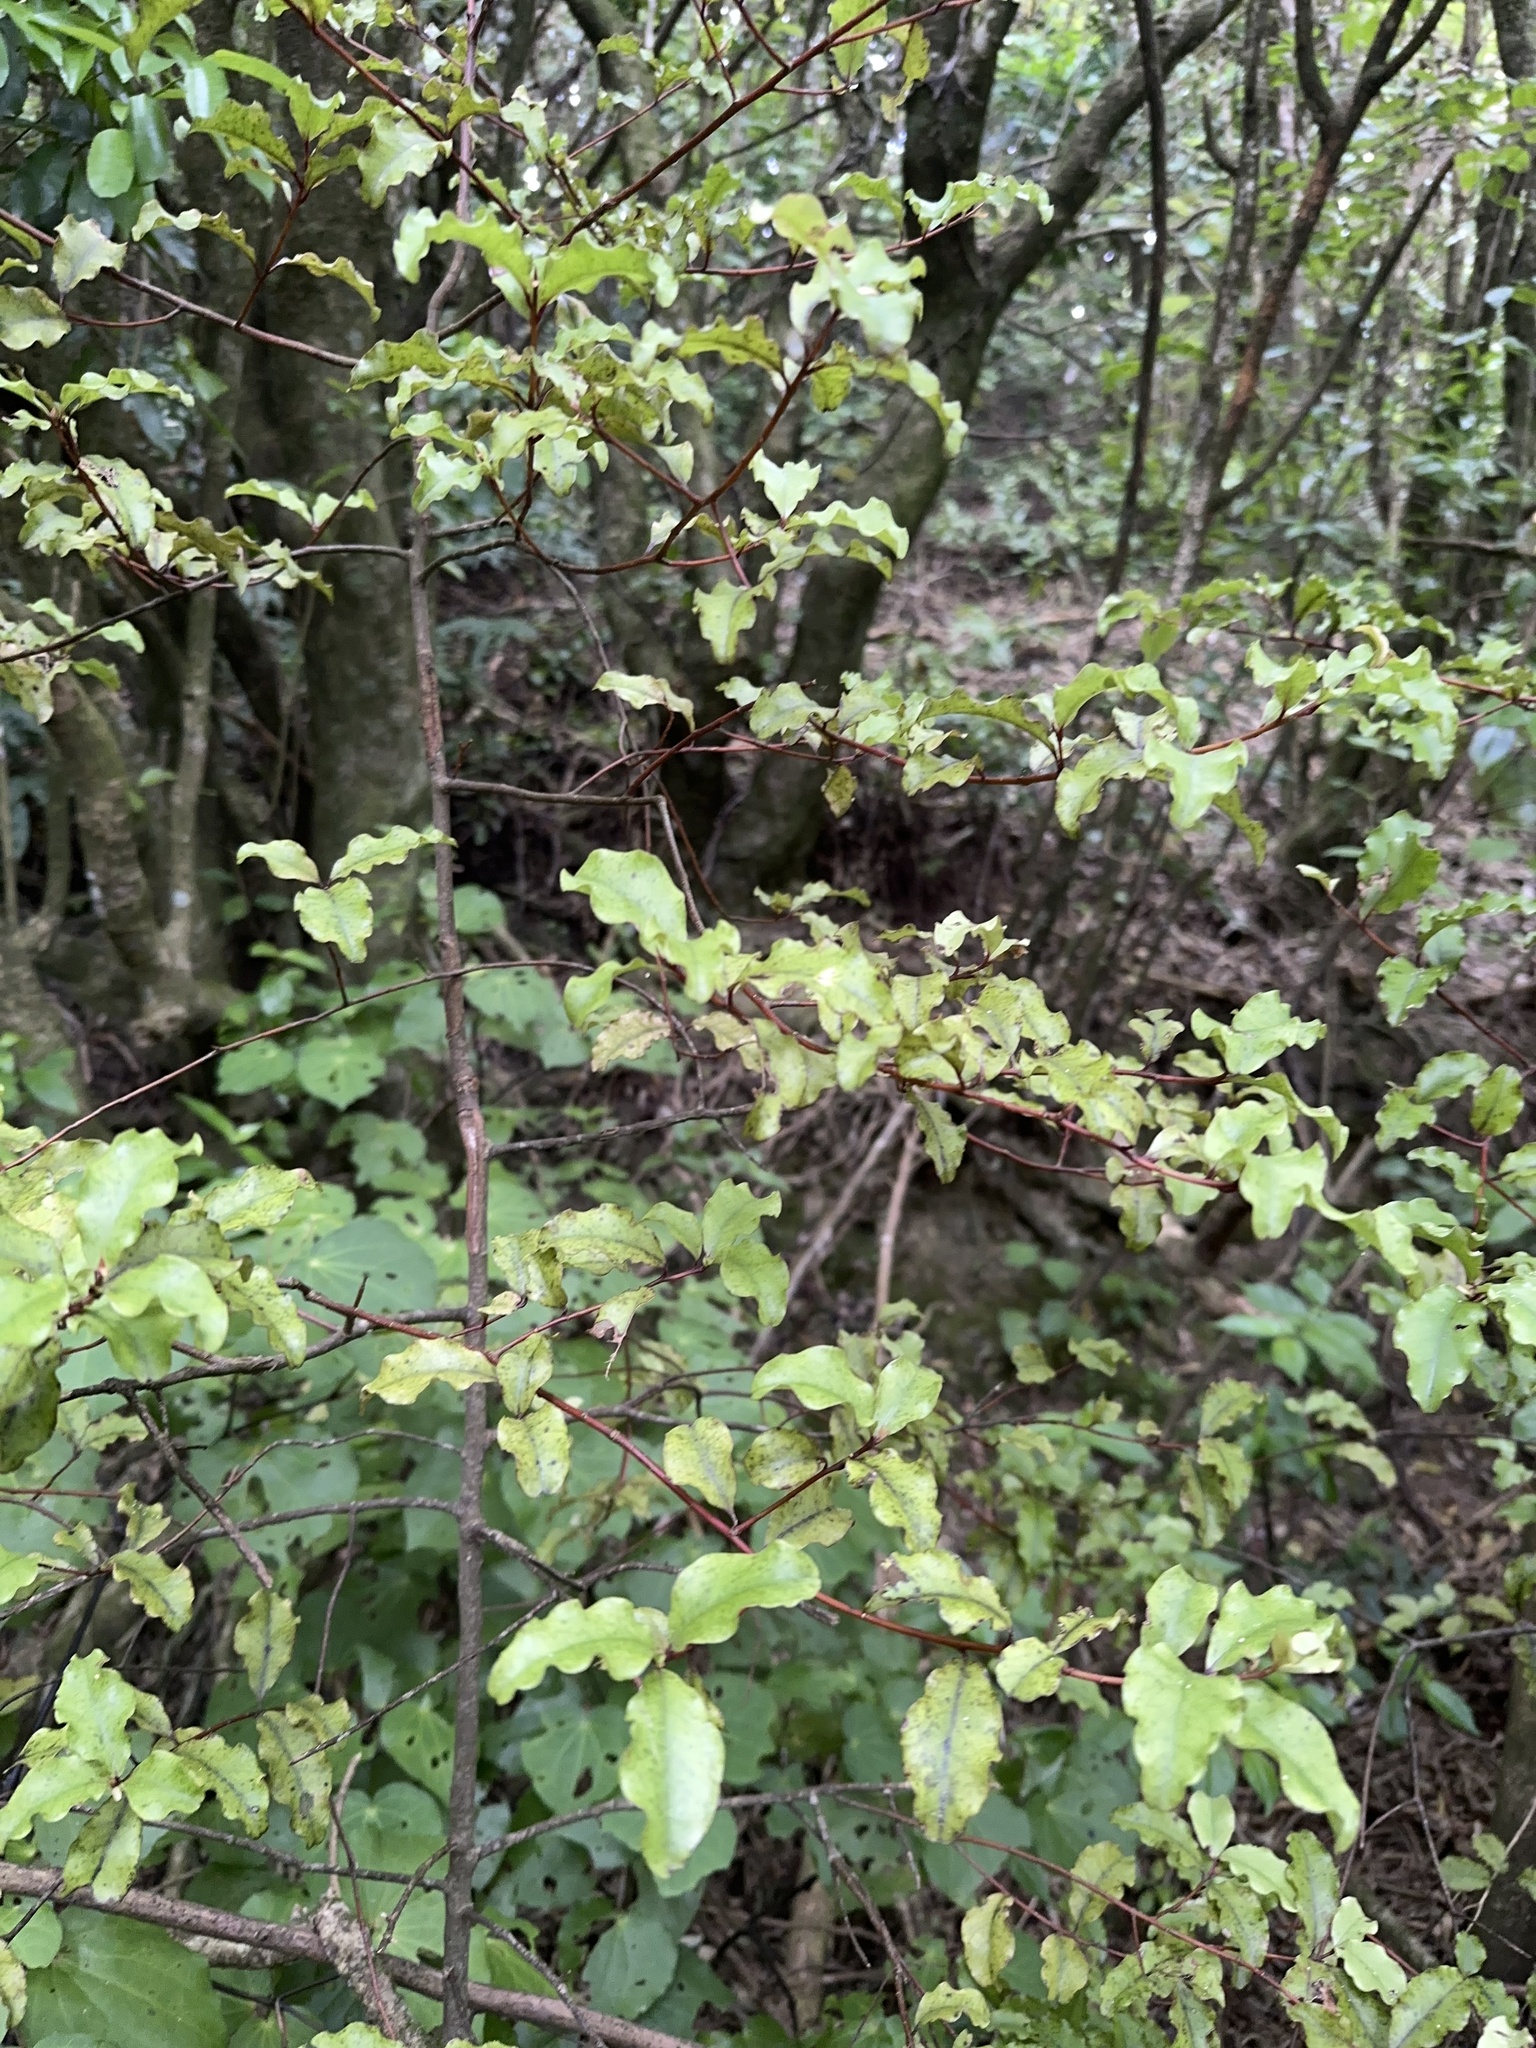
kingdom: Plantae
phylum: Tracheophyta
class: Magnoliopsida
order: Ericales
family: Primulaceae
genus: Myrsine
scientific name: Myrsine australis
